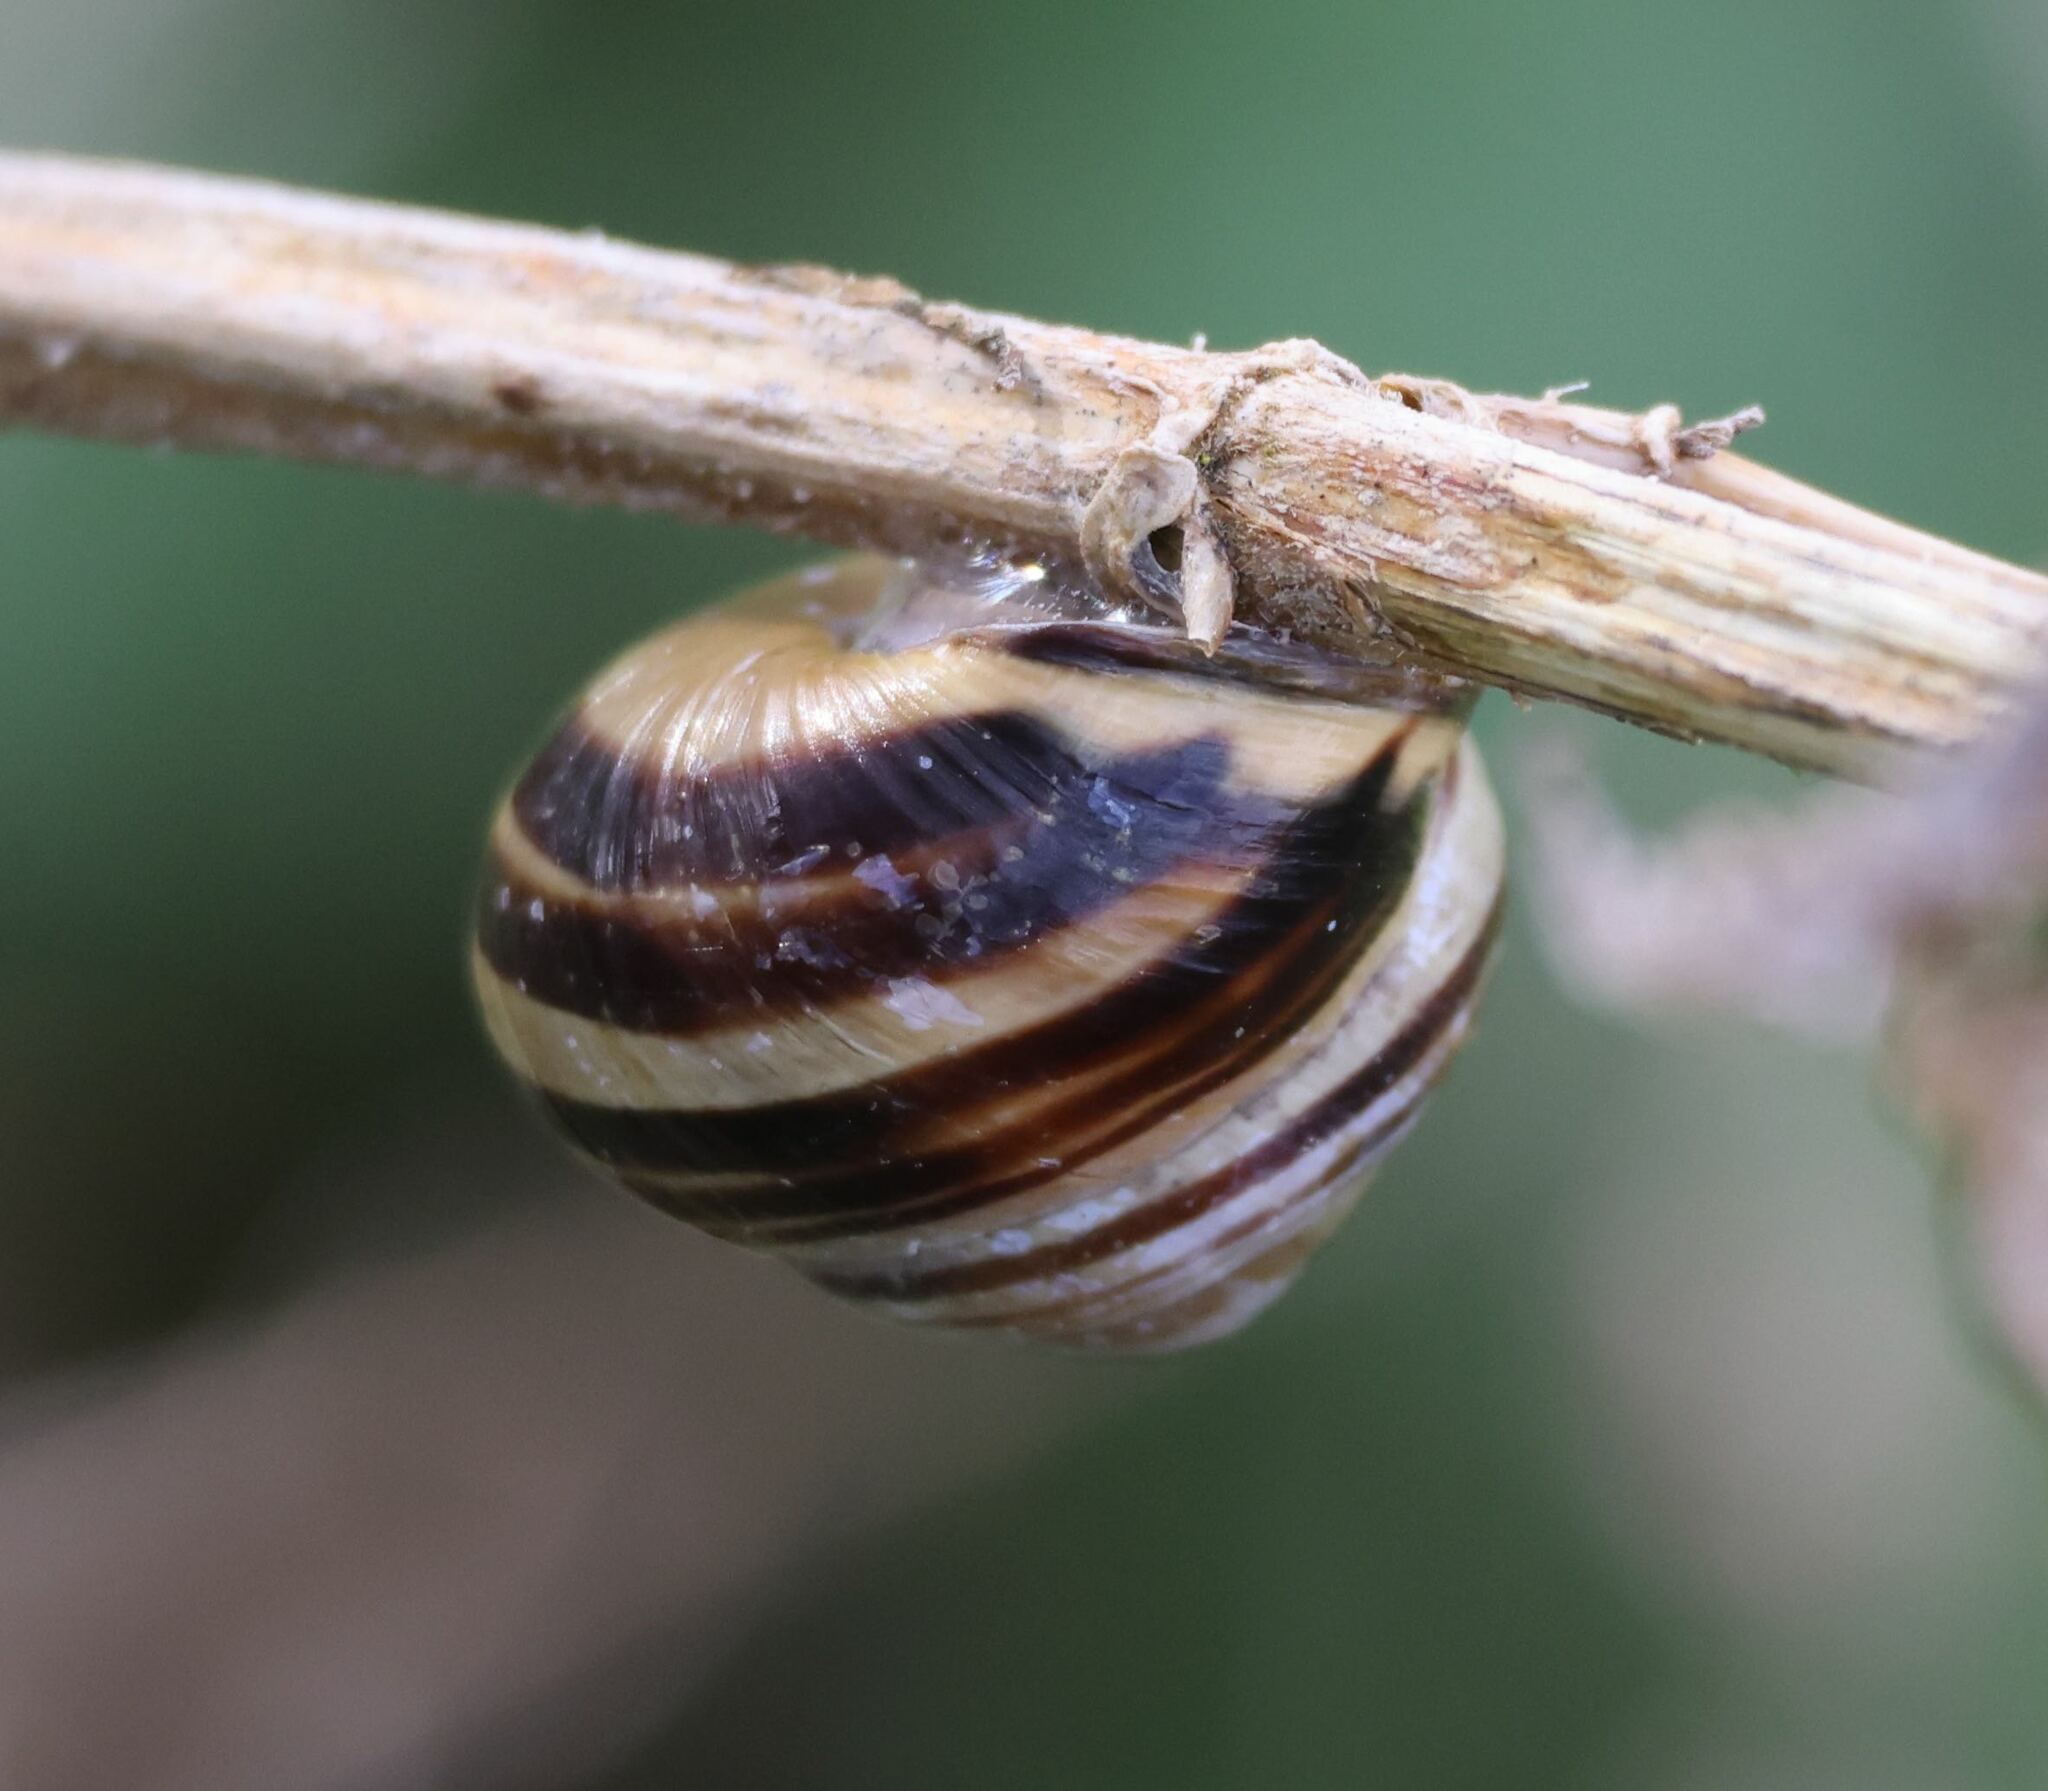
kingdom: Animalia
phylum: Mollusca
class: Gastropoda
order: Stylommatophora
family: Helicidae
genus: Cepaea
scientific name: Cepaea nemoralis
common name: Grovesnail
